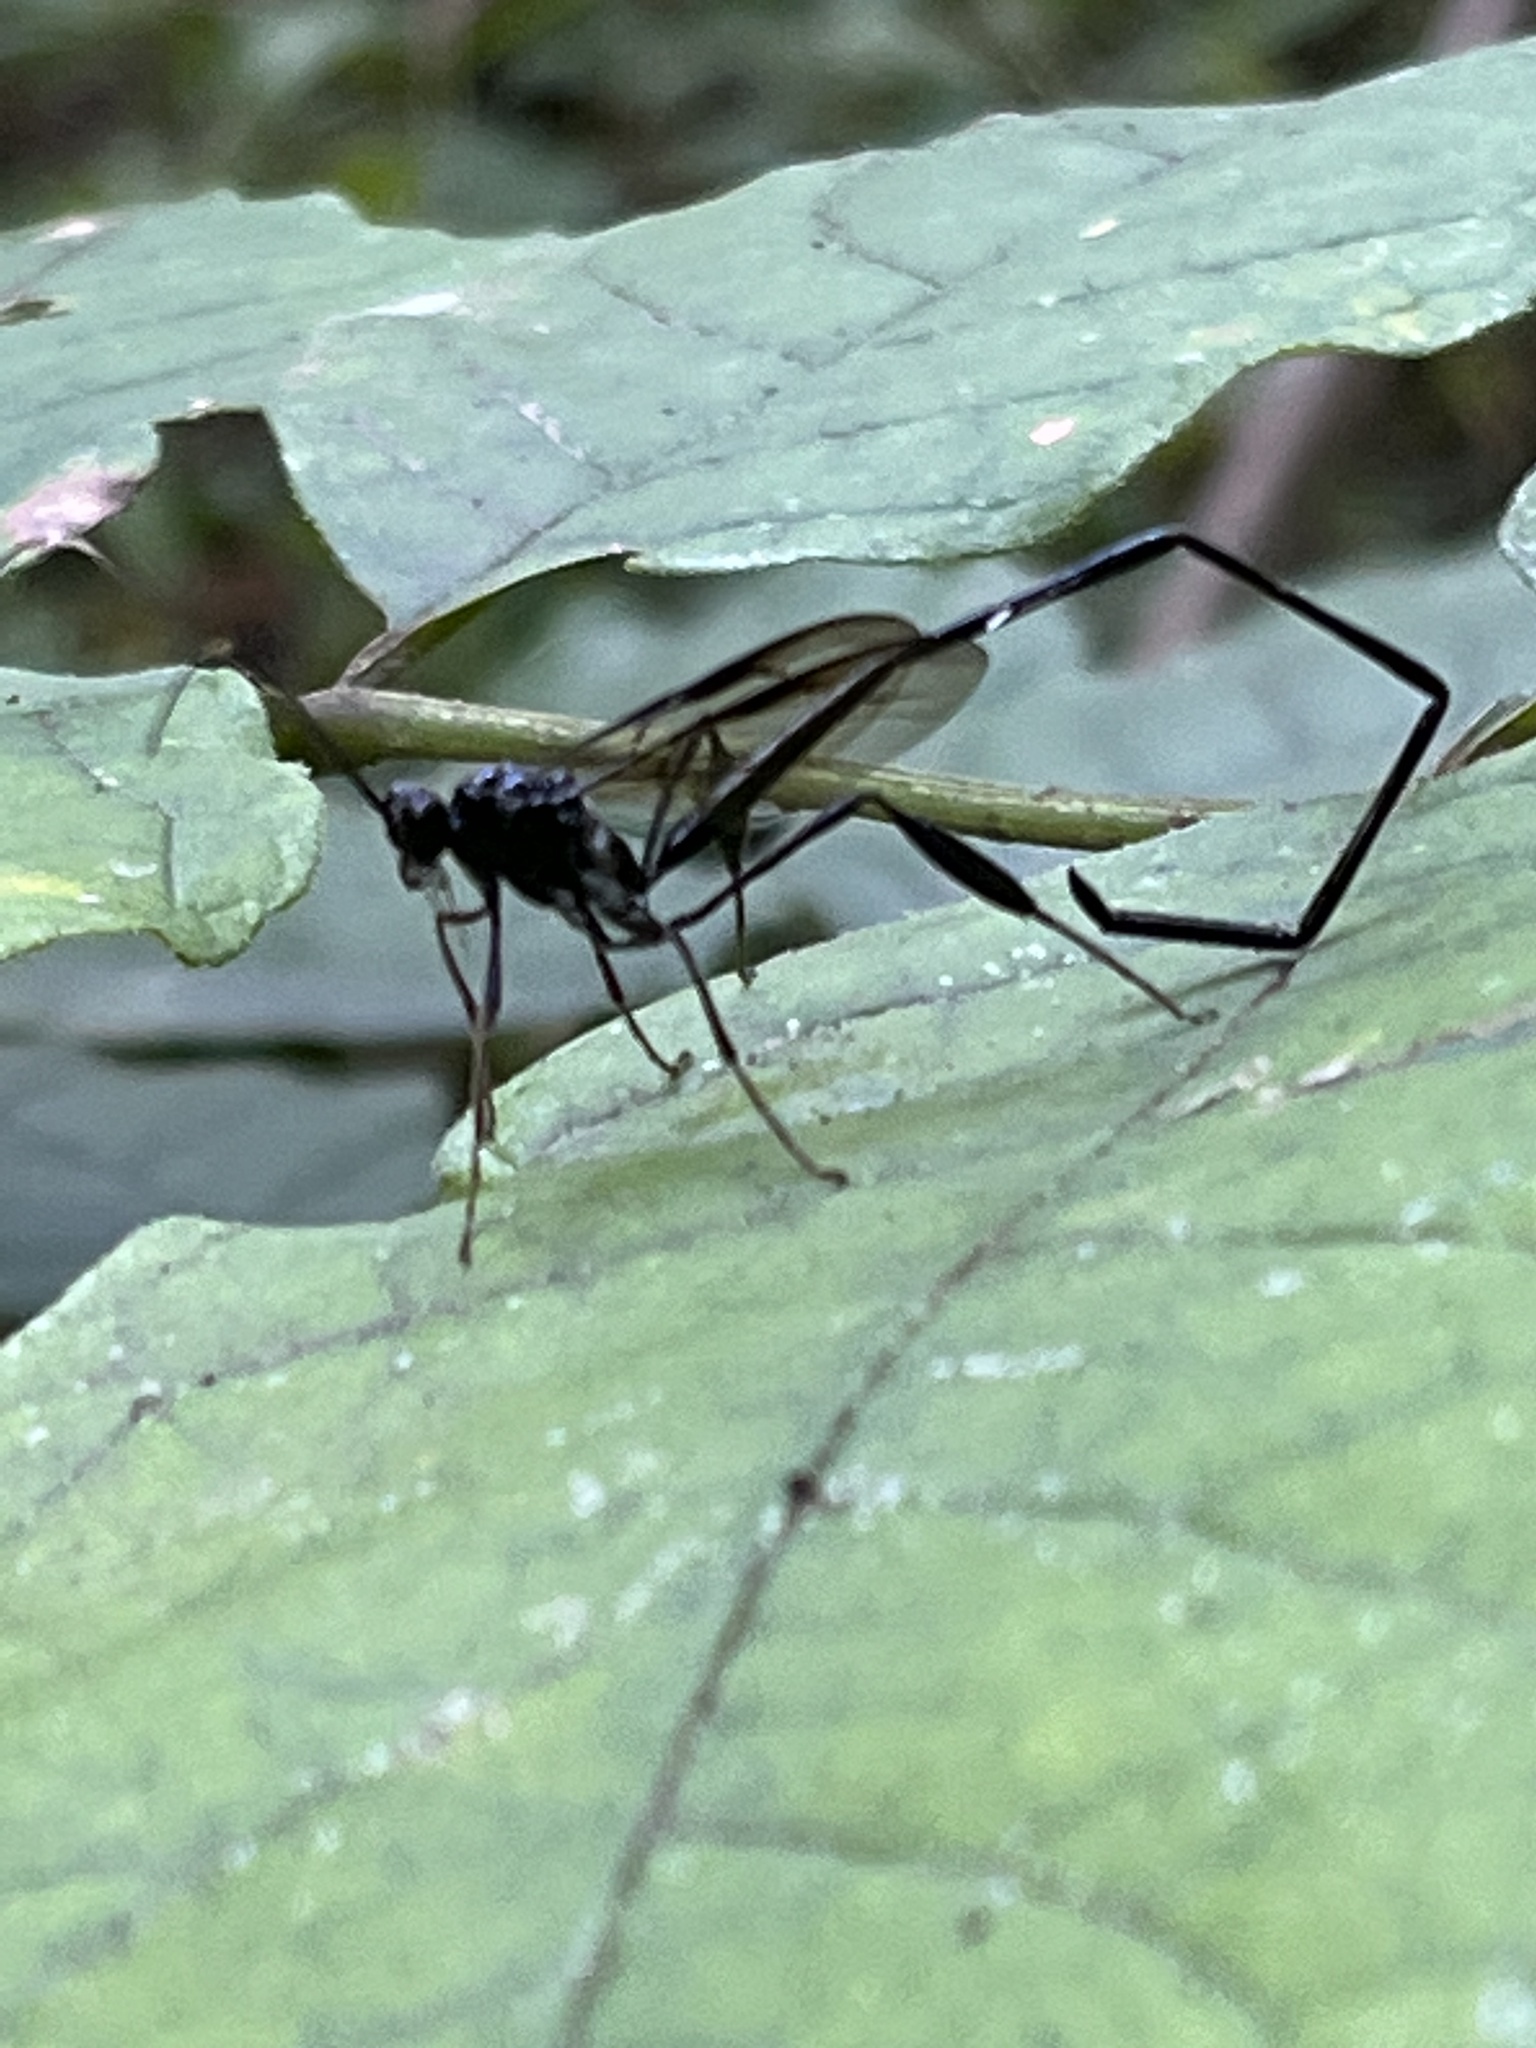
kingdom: Animalia
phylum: Arthropoda
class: Insecta
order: Hymenoptera
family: Pelecinidae
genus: Pelecinus
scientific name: Pelecinus polyturator
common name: American pelecinid wasp
